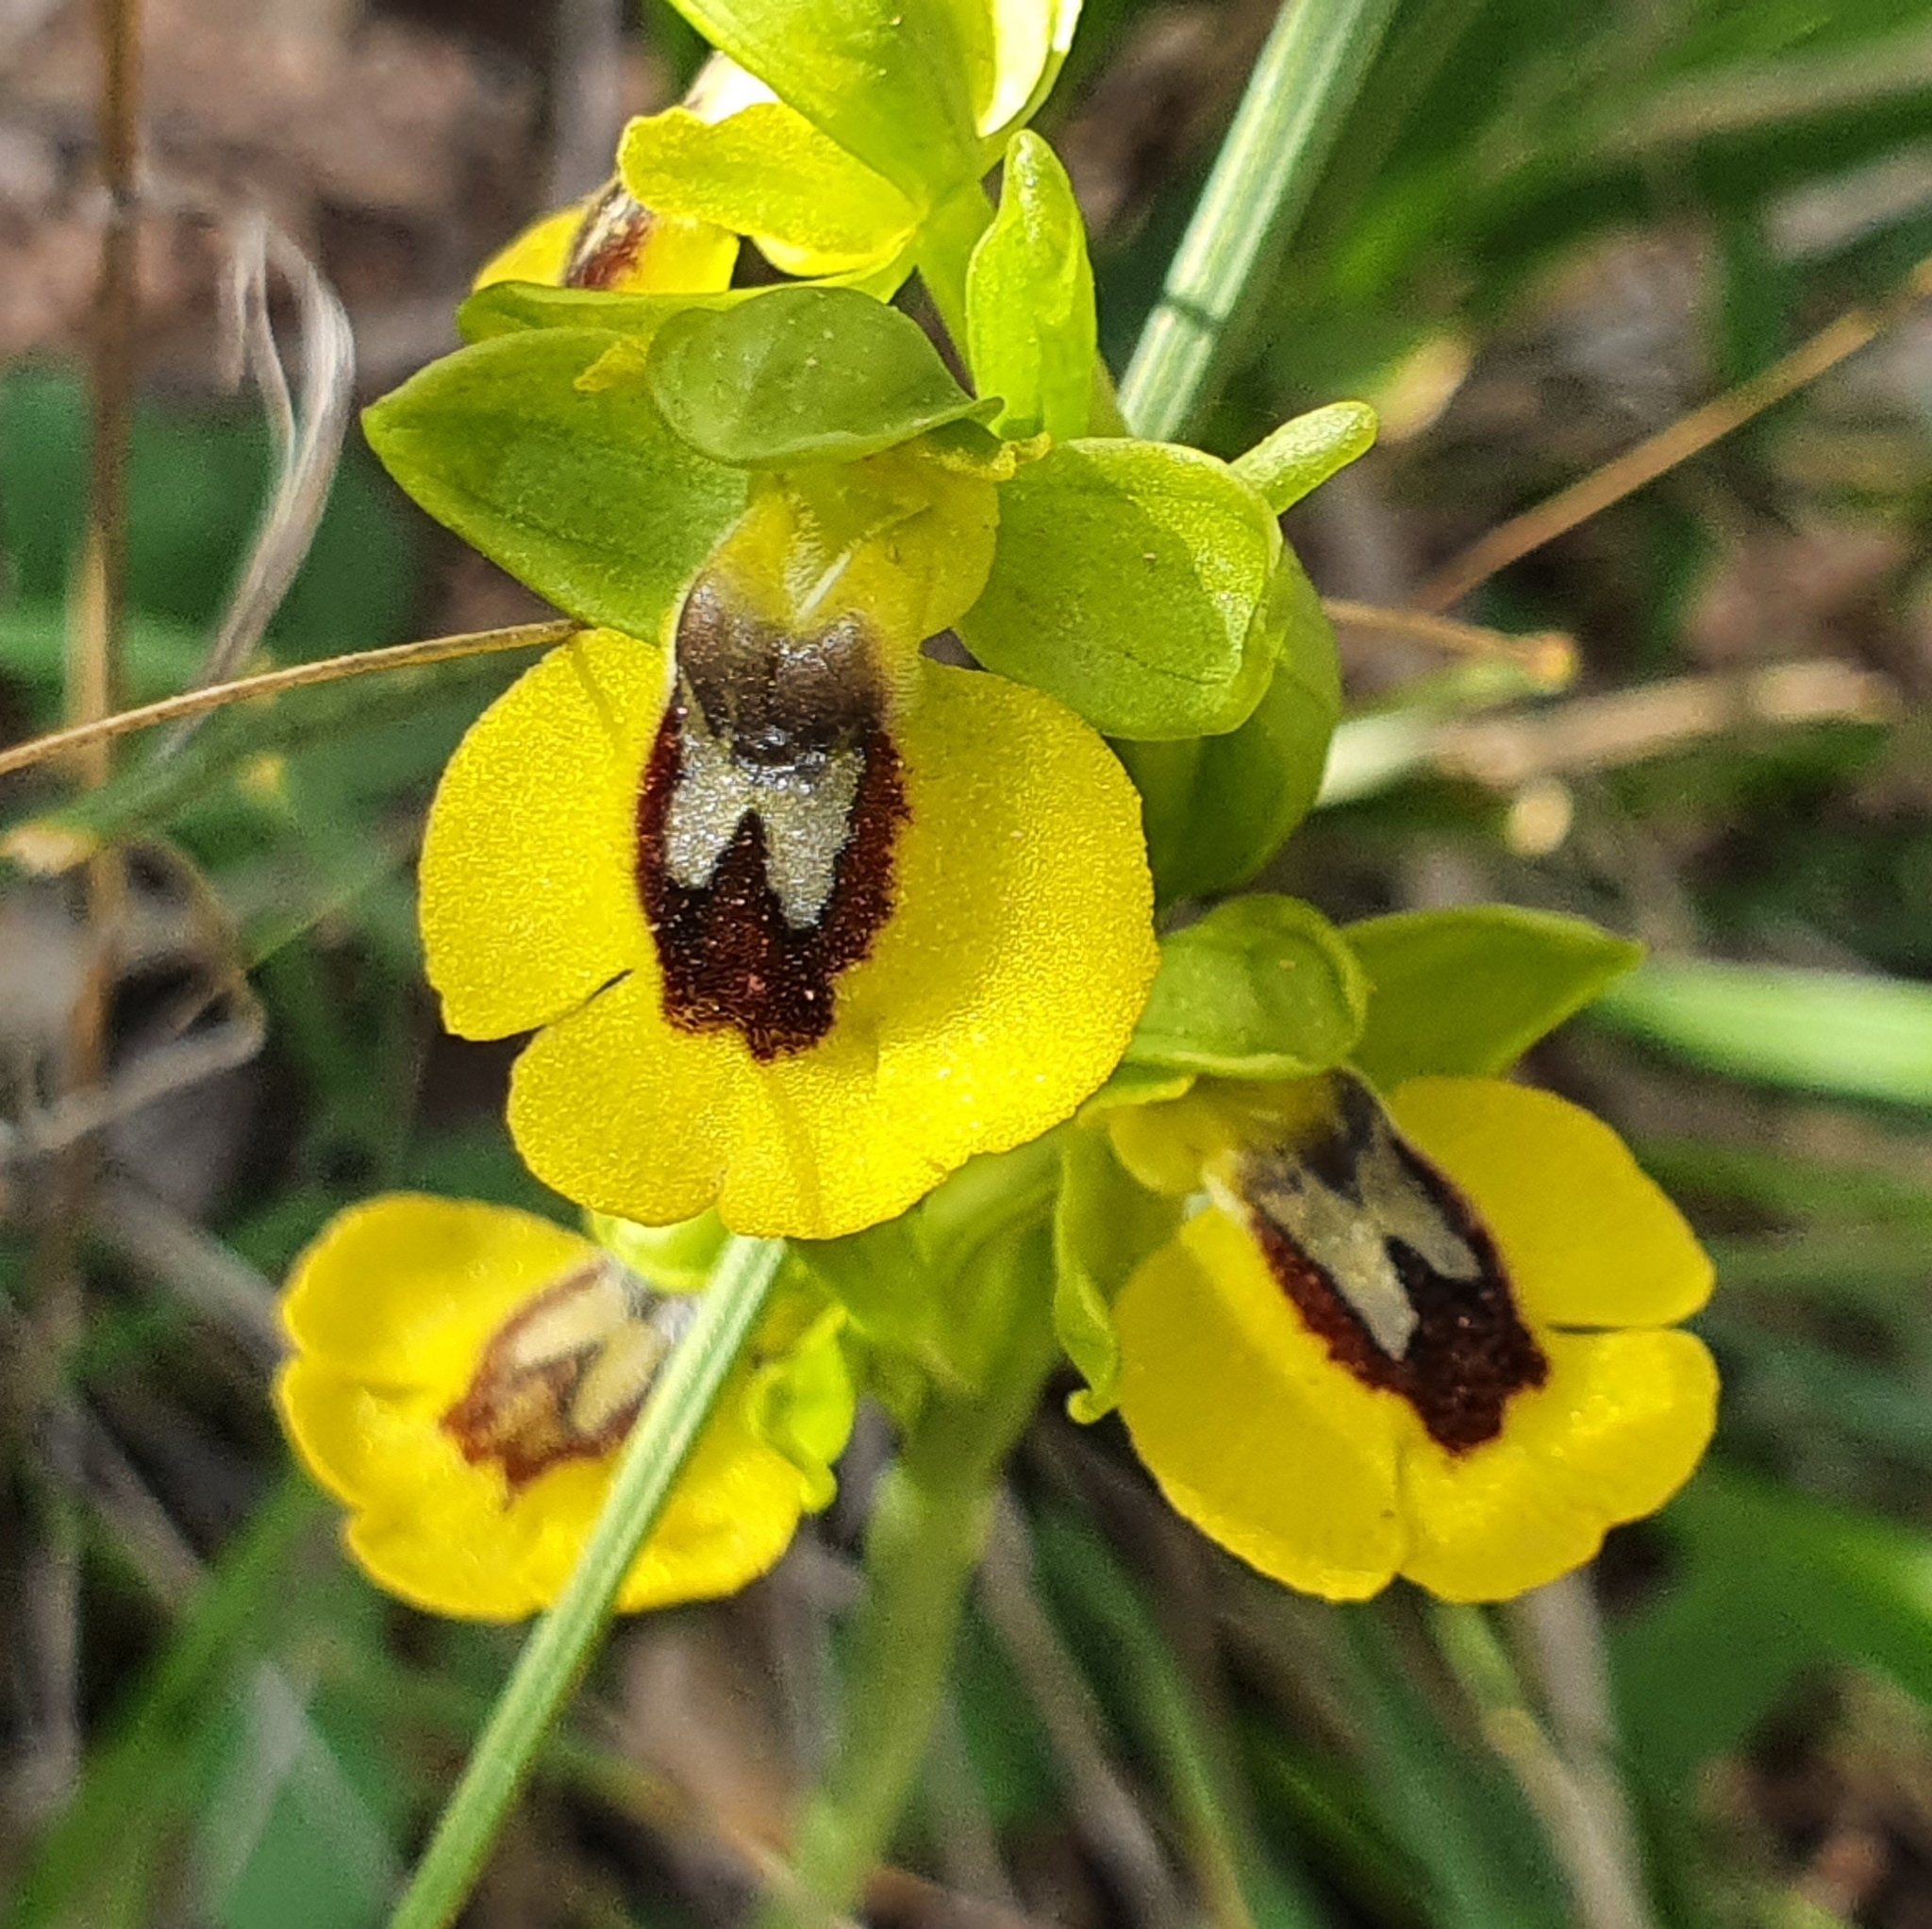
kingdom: Plantae
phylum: Tracheophyta
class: Liliopsida
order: Asparagales
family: Orchidaceae
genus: Ophrys
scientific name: Ophrys lutea
